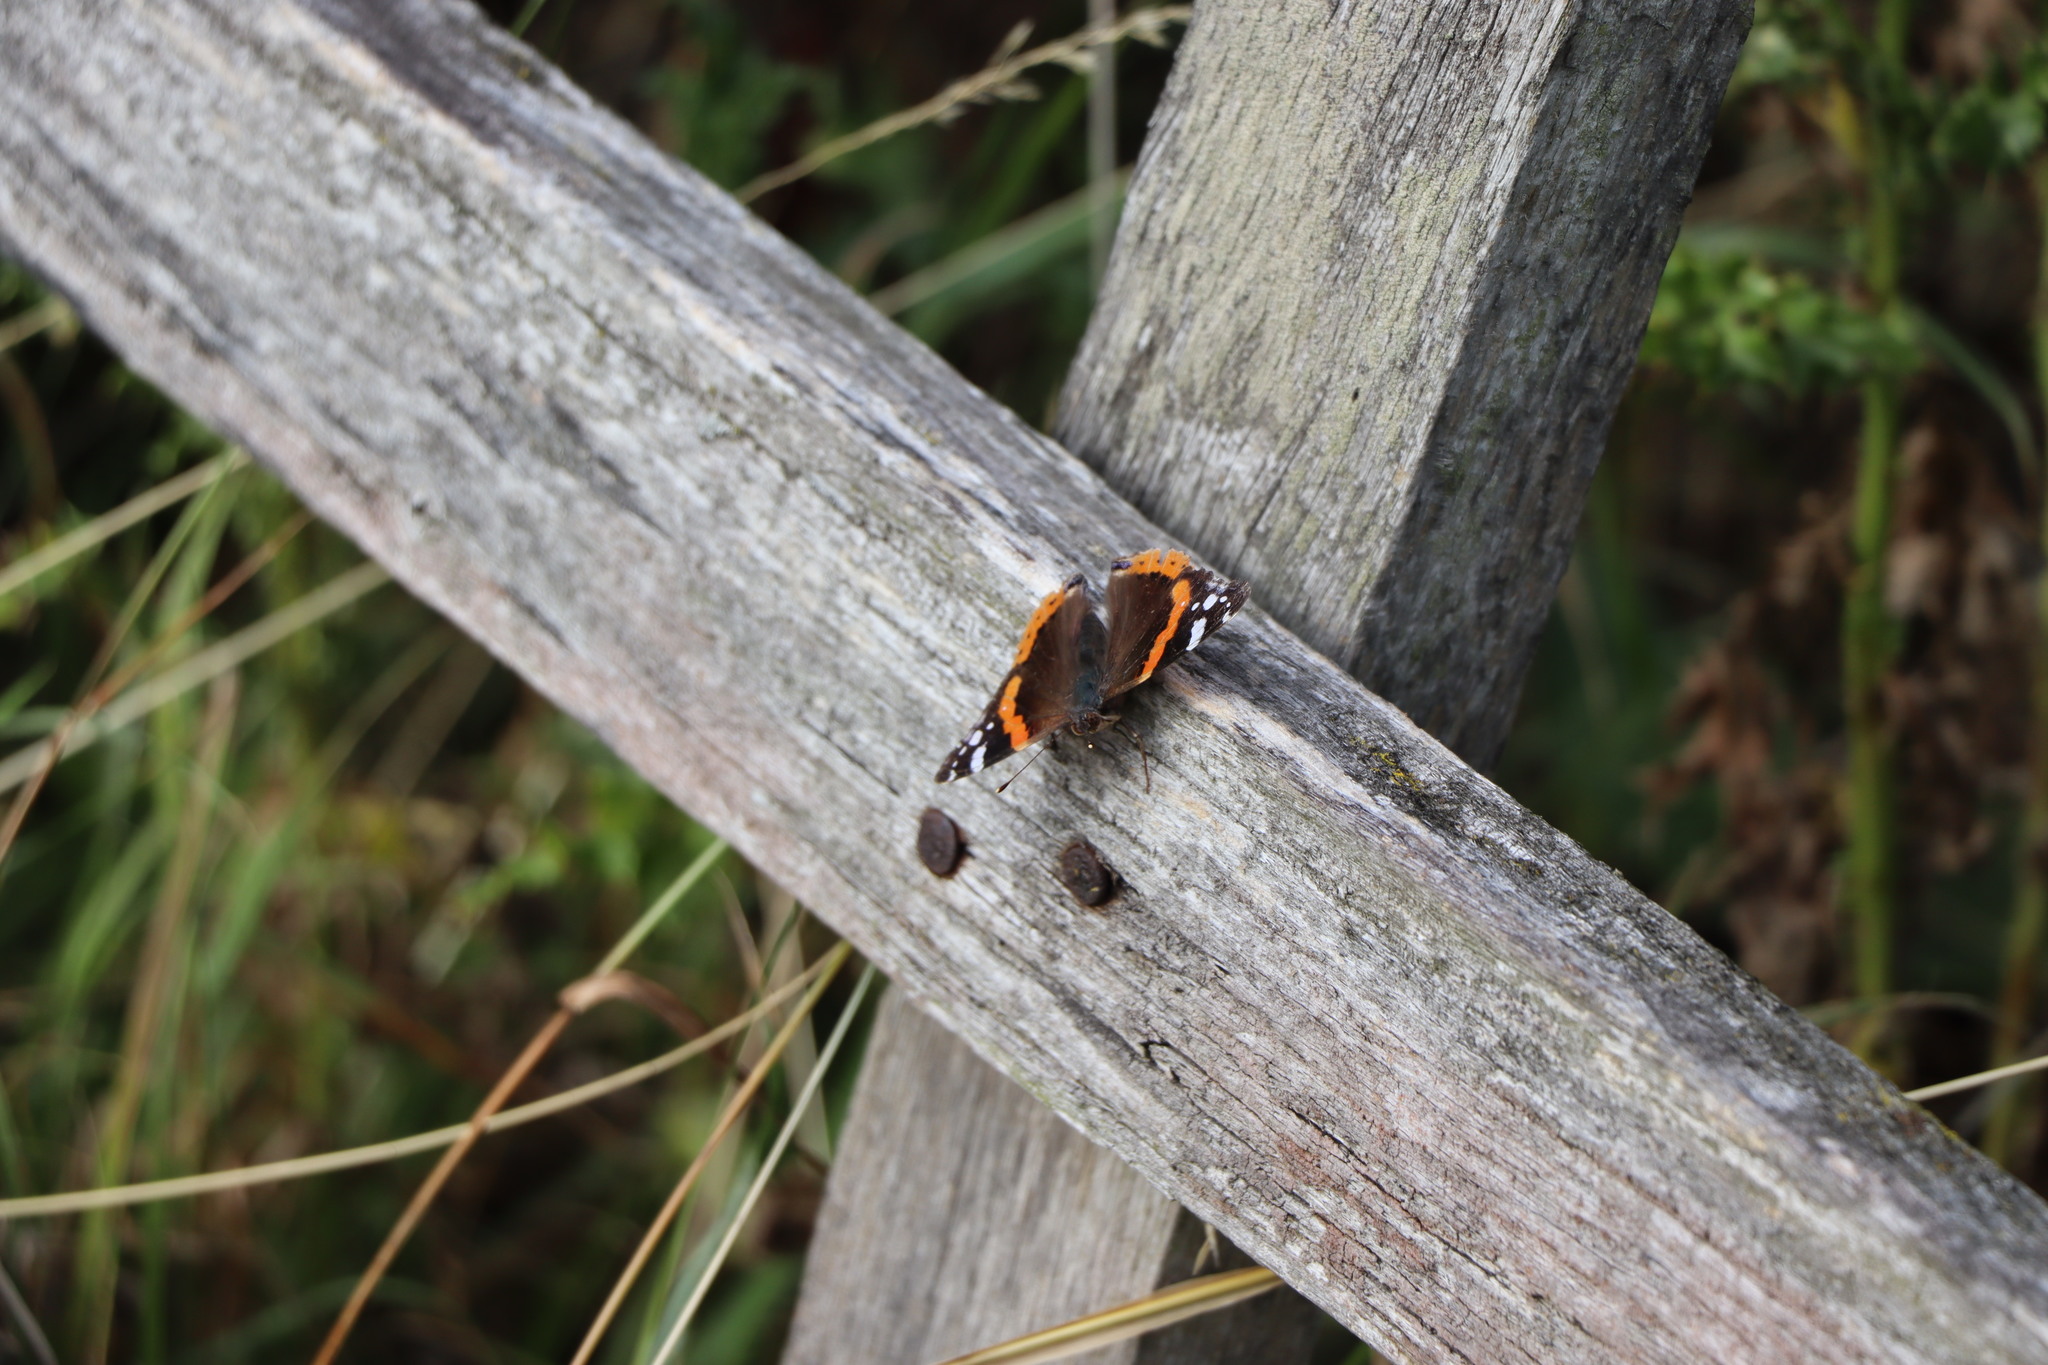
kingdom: Animalia
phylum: Arthropoda
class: Insecta
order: Lepidoptera
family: Nymphalidae
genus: Vanessa
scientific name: Vanessa atalanta
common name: Red admiral
